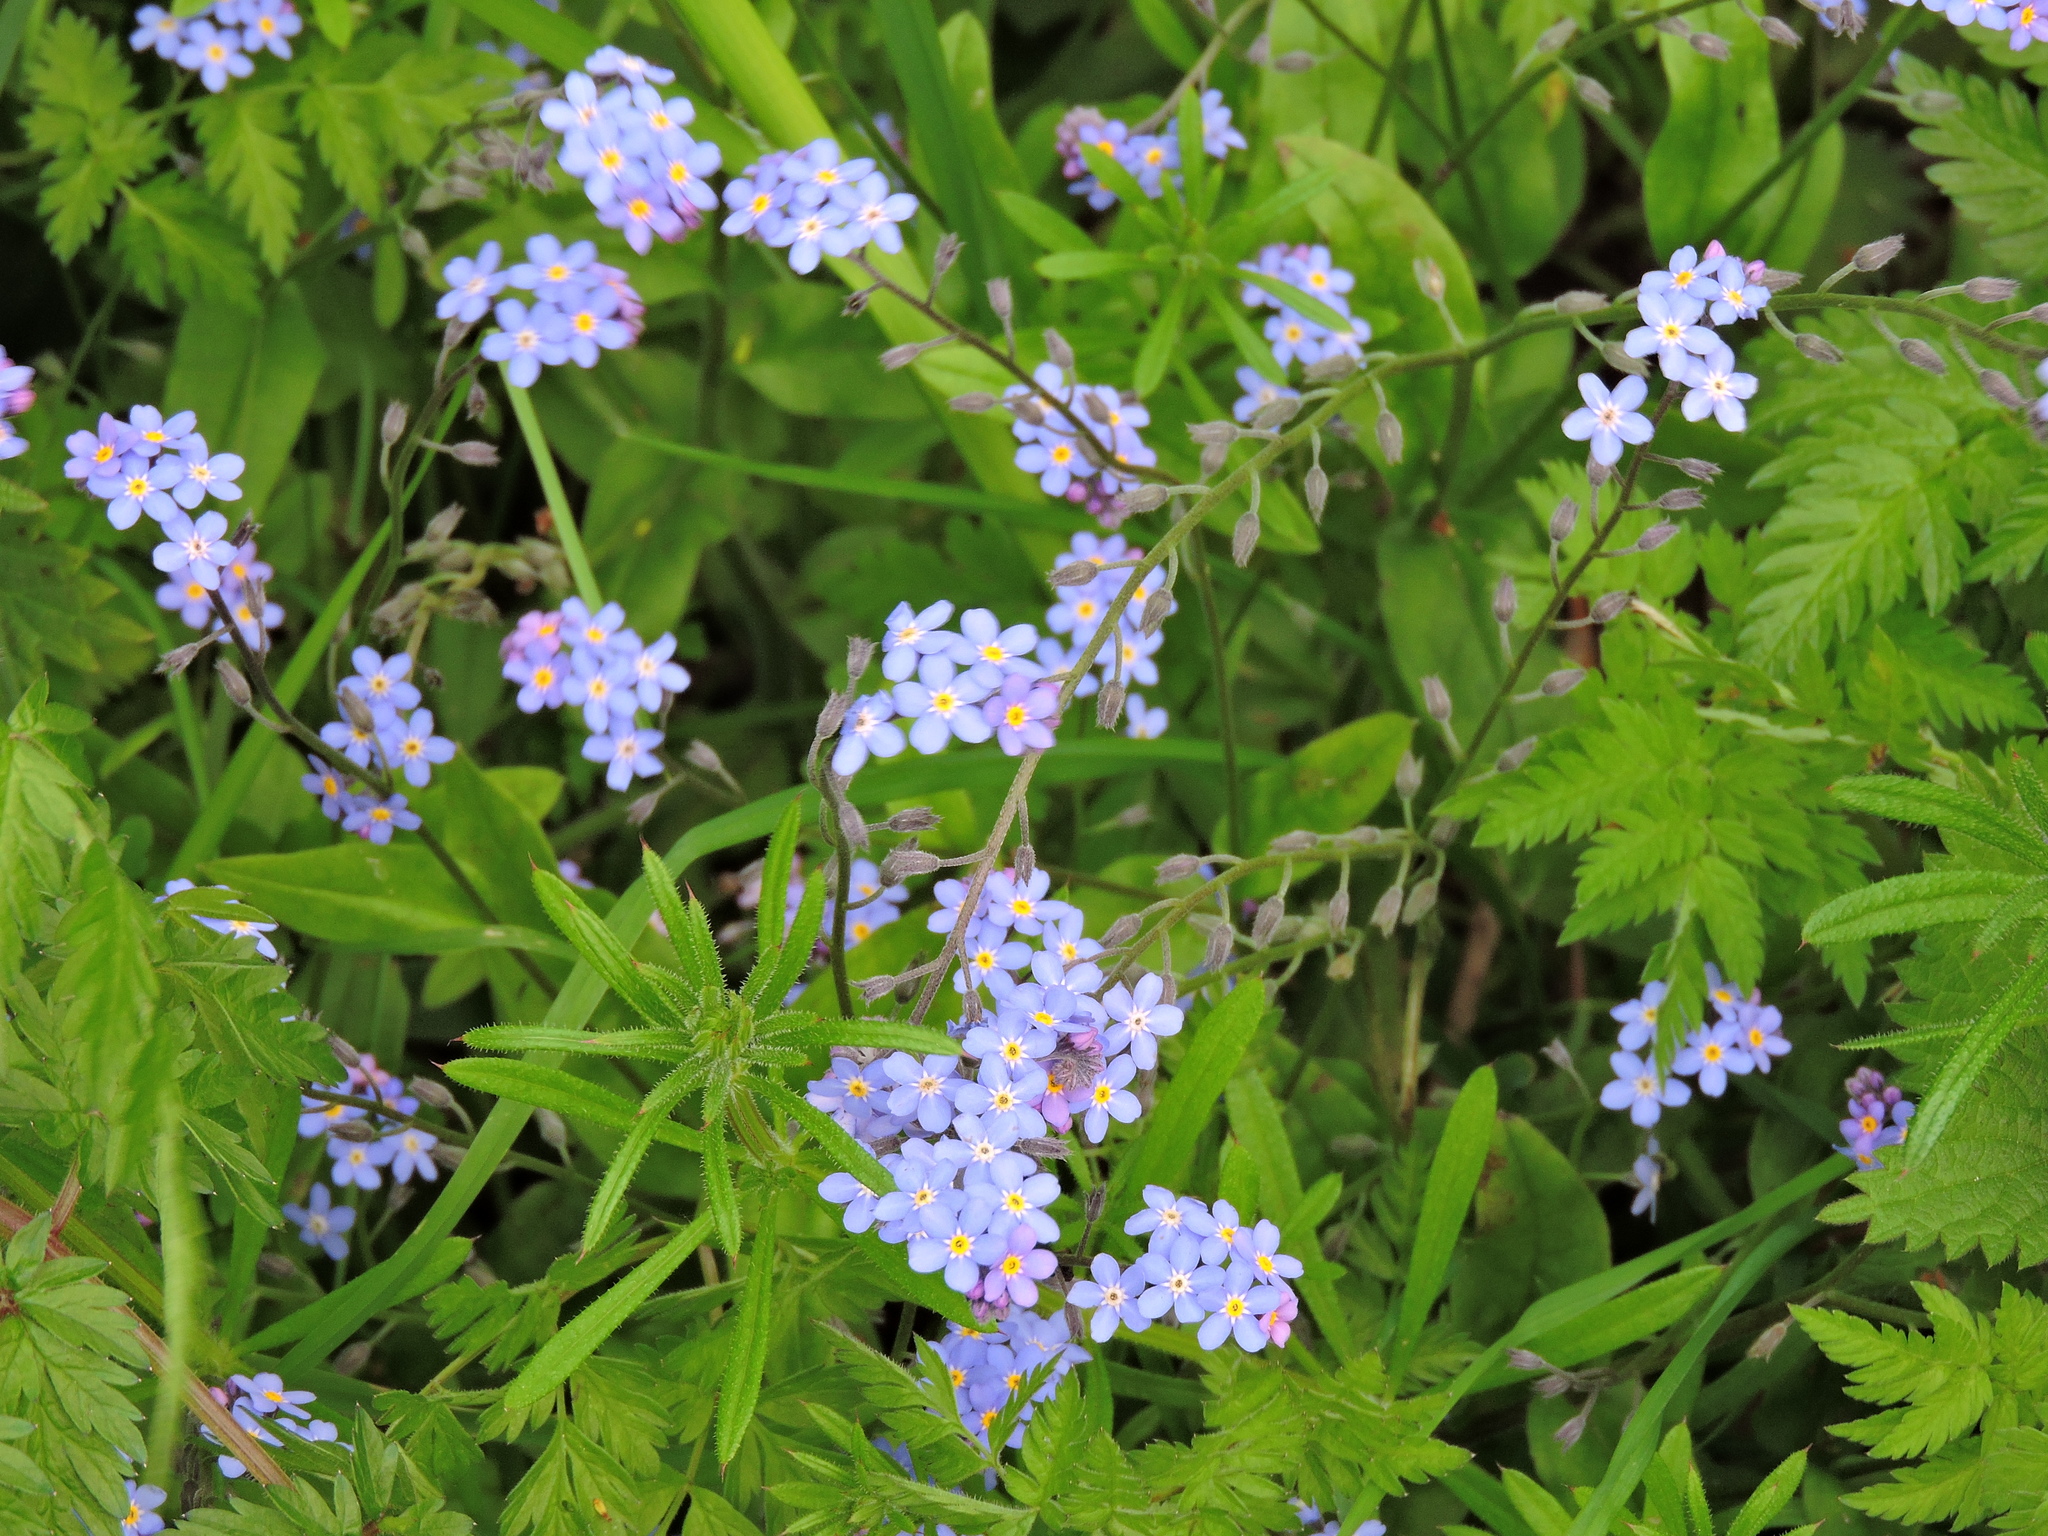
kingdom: Plantae
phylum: Tracheophyta
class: Magnoliopsida
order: Boraginales
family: Boraginaceae
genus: Myosotis
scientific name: Myosotis sylvatica
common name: Wood forget-me-not
